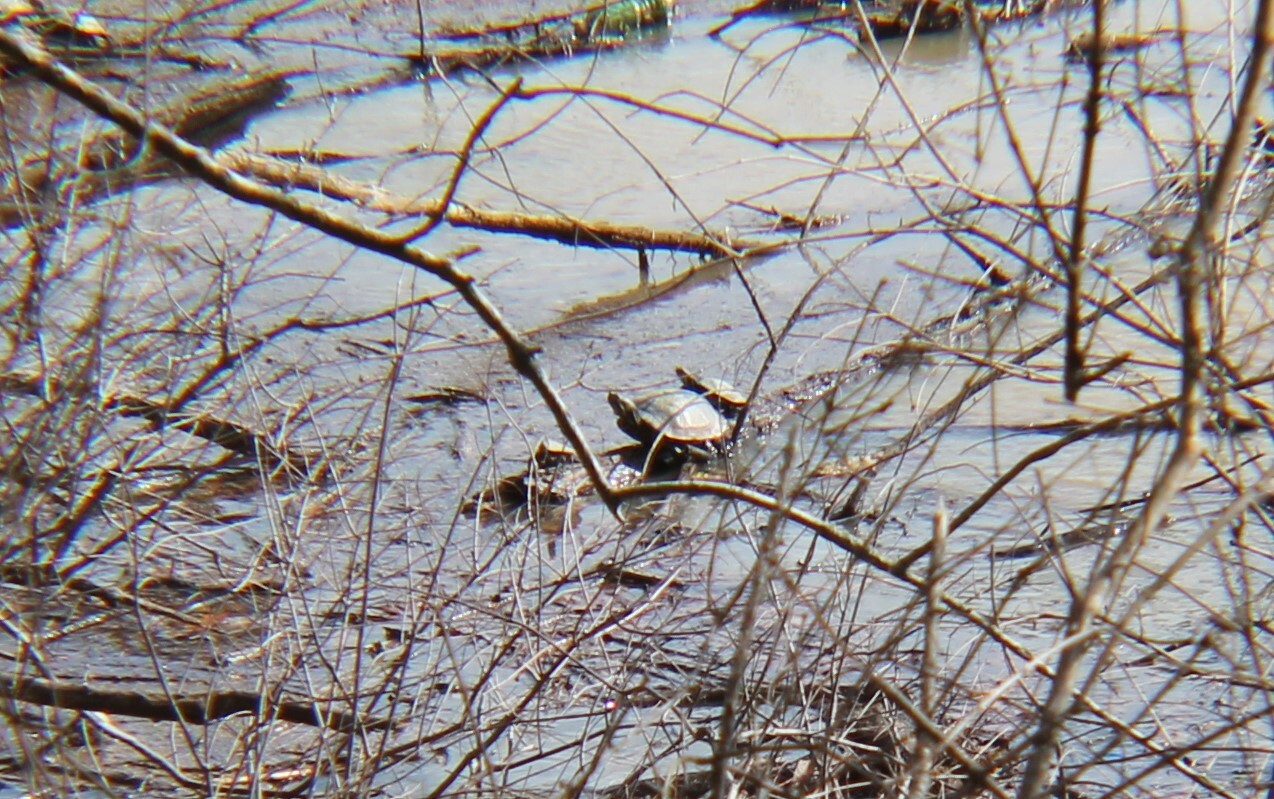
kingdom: Animalia
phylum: Chordata
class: Testudines
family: Emydidae
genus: Trachemys
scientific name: Trachemys scripta
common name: Slider
